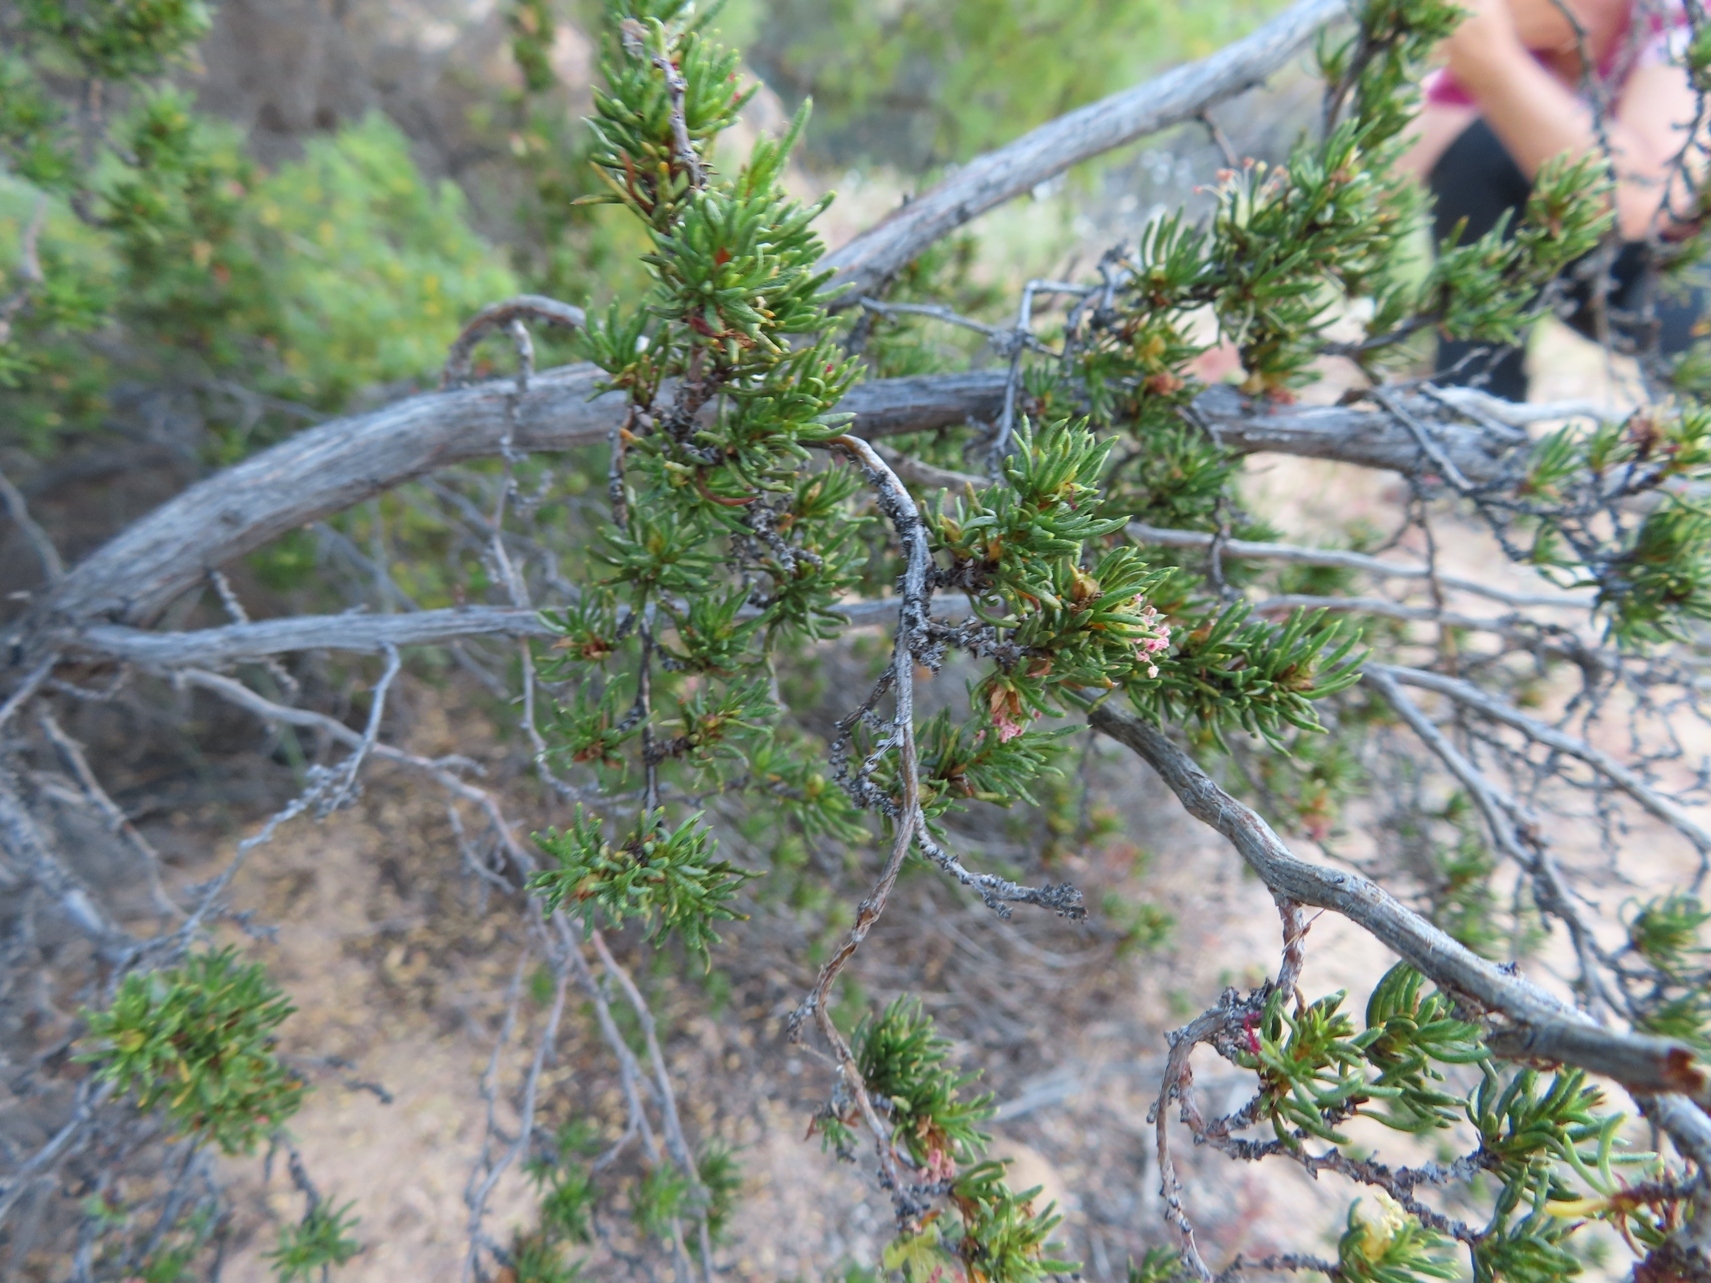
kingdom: Plantae
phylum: Tracheophyta
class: Magnoliopsida
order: Rosales
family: Rosaceae
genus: Cliffortia
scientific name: Cliffortia teretifolia
